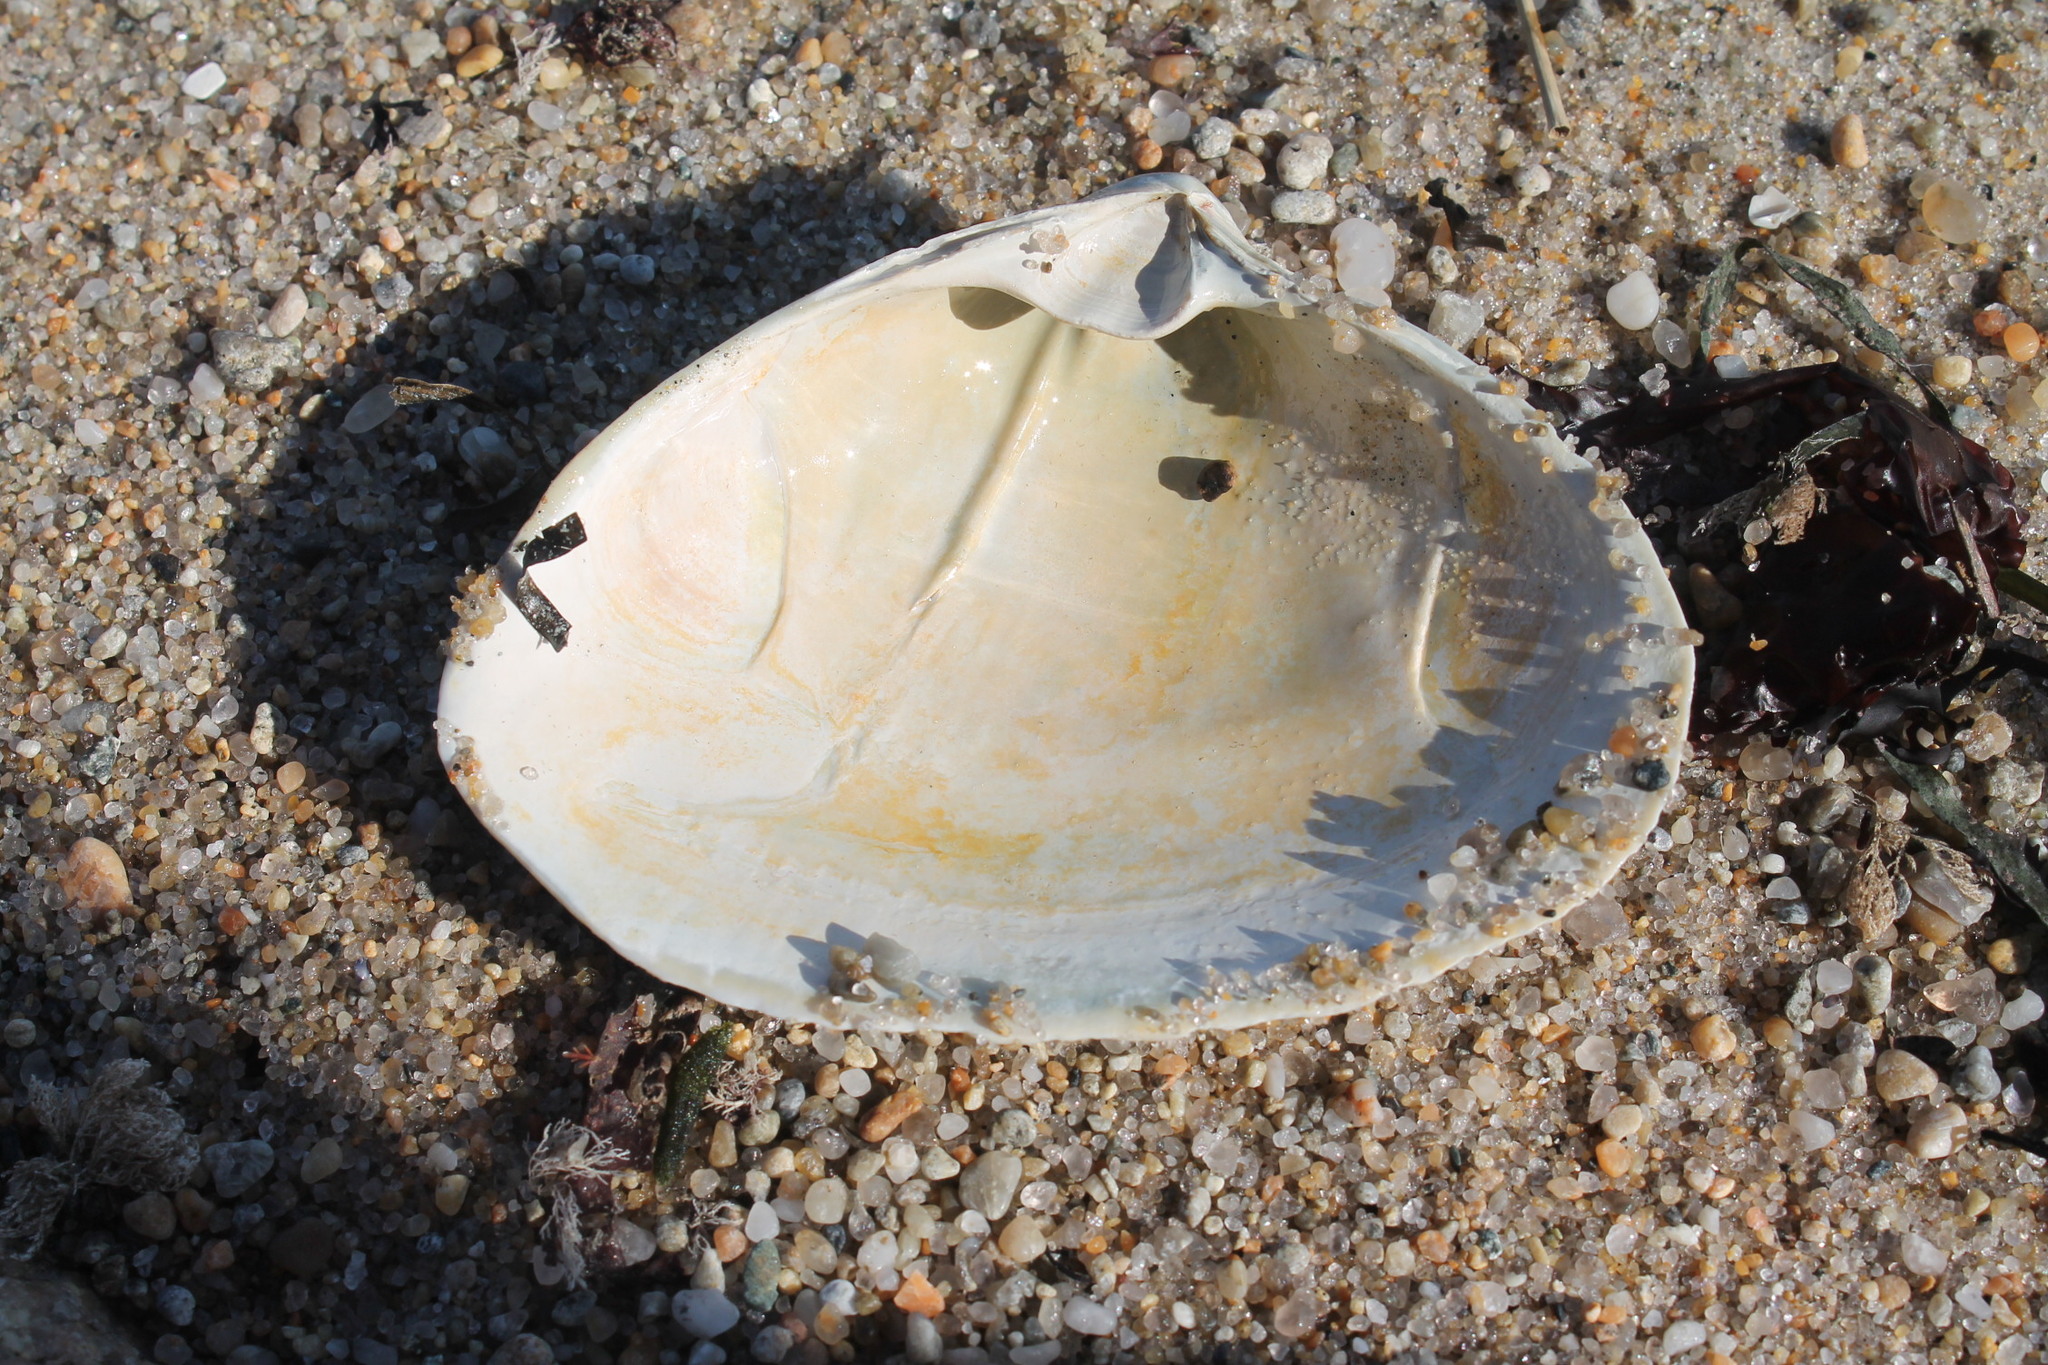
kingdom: Animalia
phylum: Mollusca
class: Bivalvia
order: Venerida
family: Mactridae
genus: Spisula
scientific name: Spisula solidissima
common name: Atlantic surf clam
